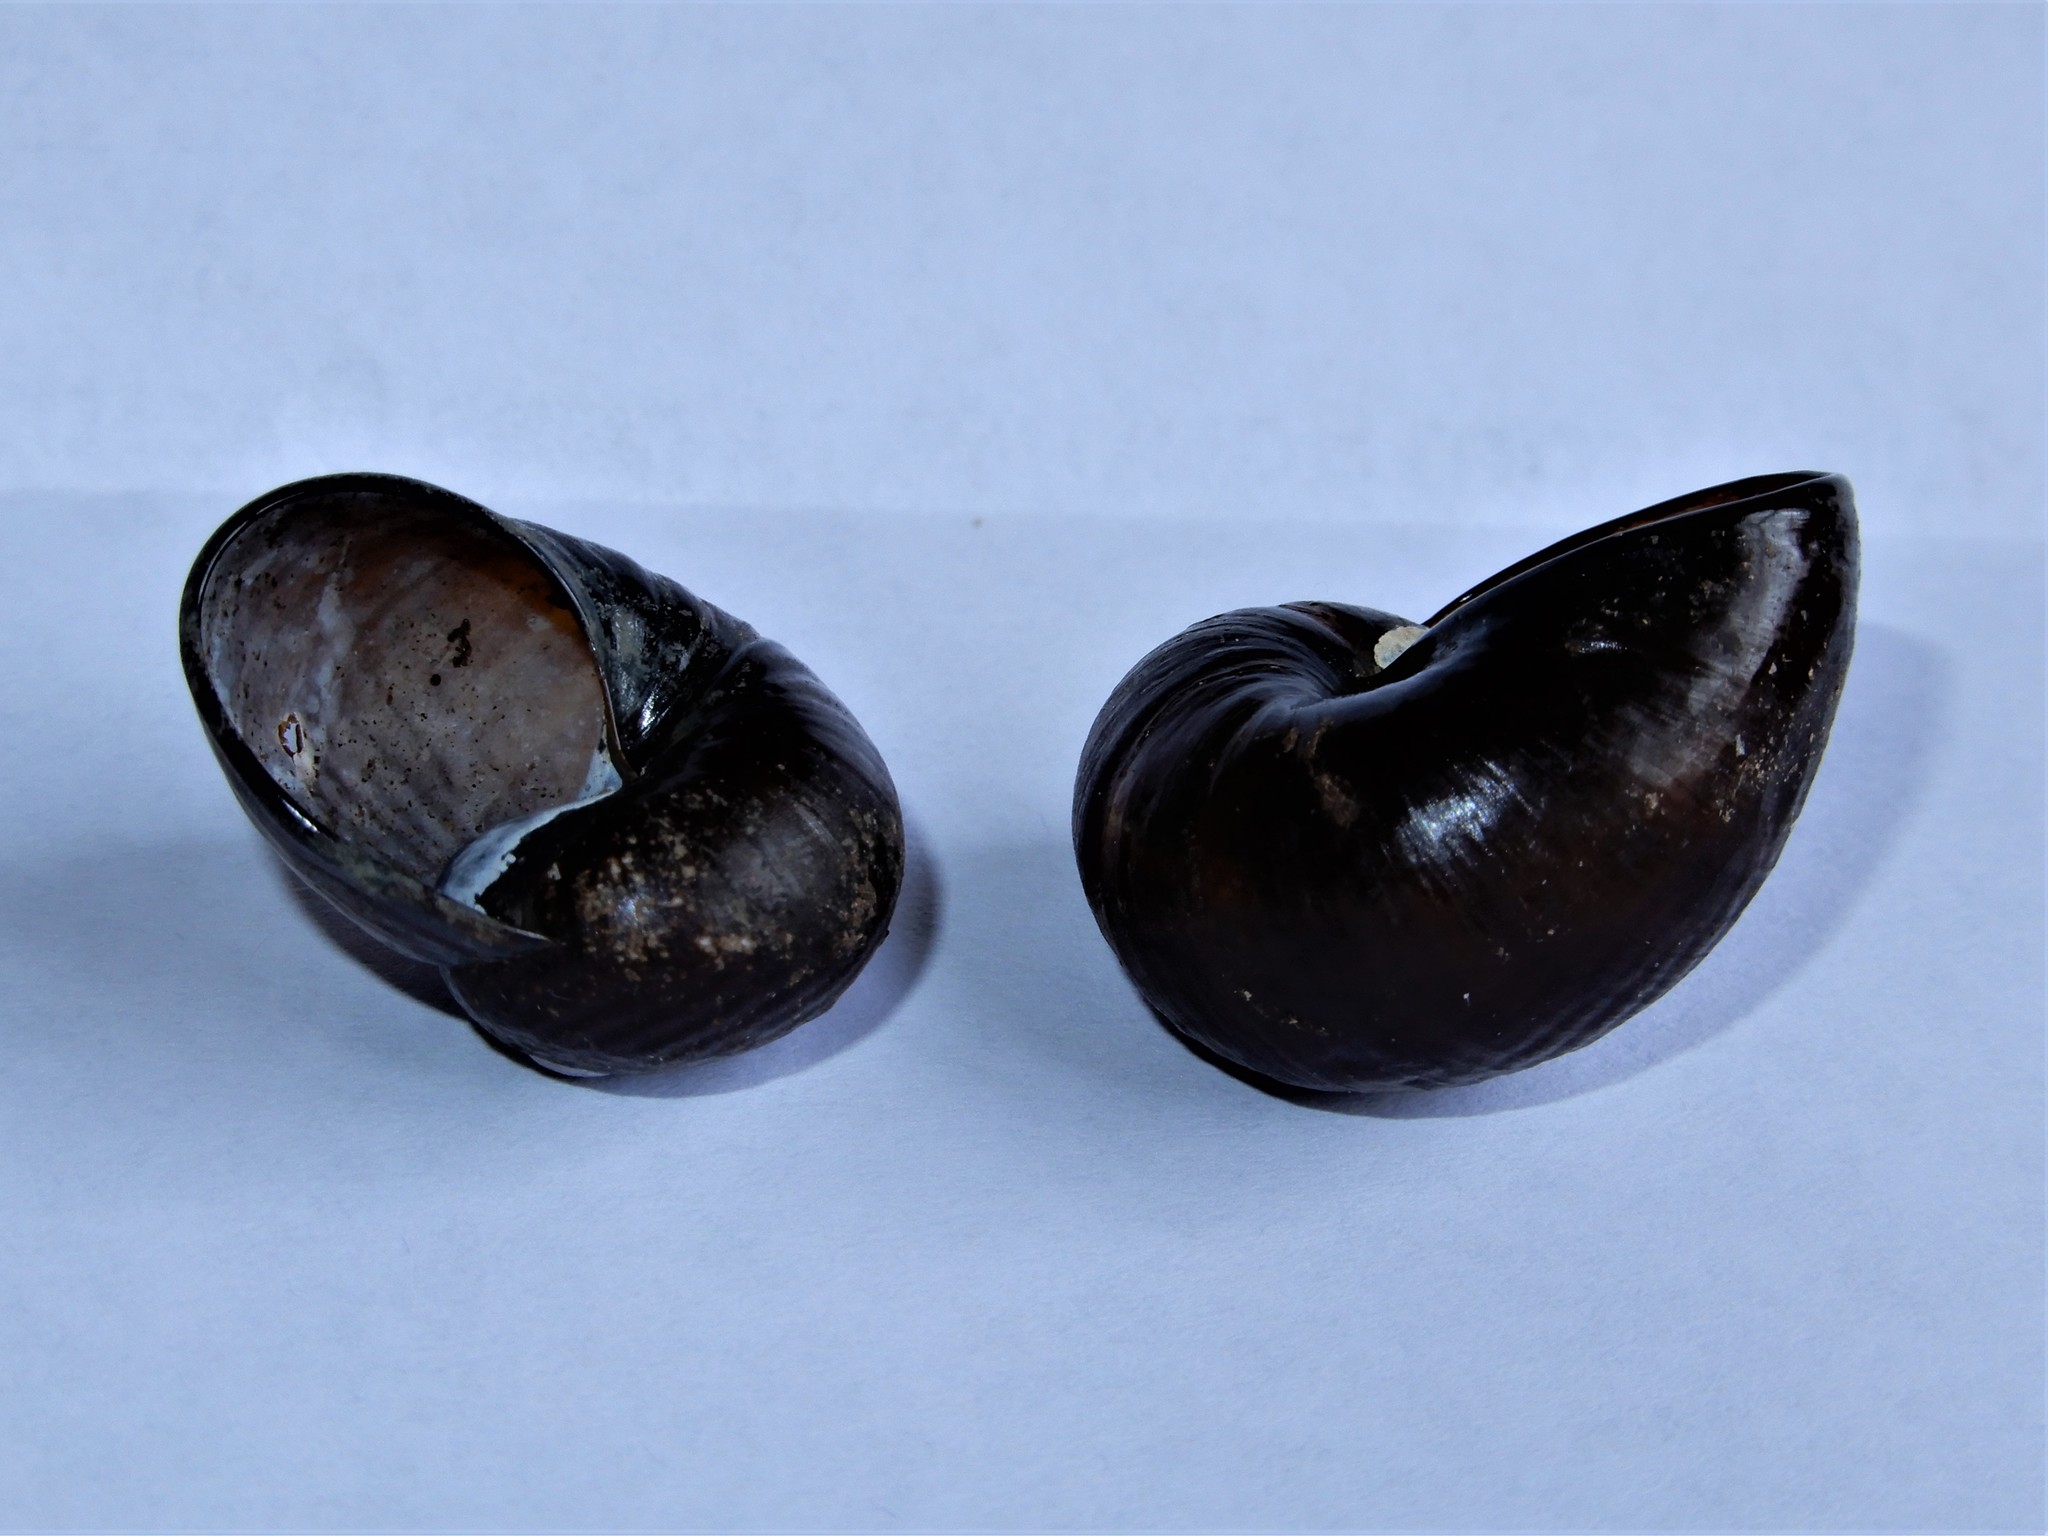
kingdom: Animalia
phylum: Mollusca
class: Gastropoda
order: Stylommatophora
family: Rhytididae
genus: Wainuia
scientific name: Wainuia urnula
